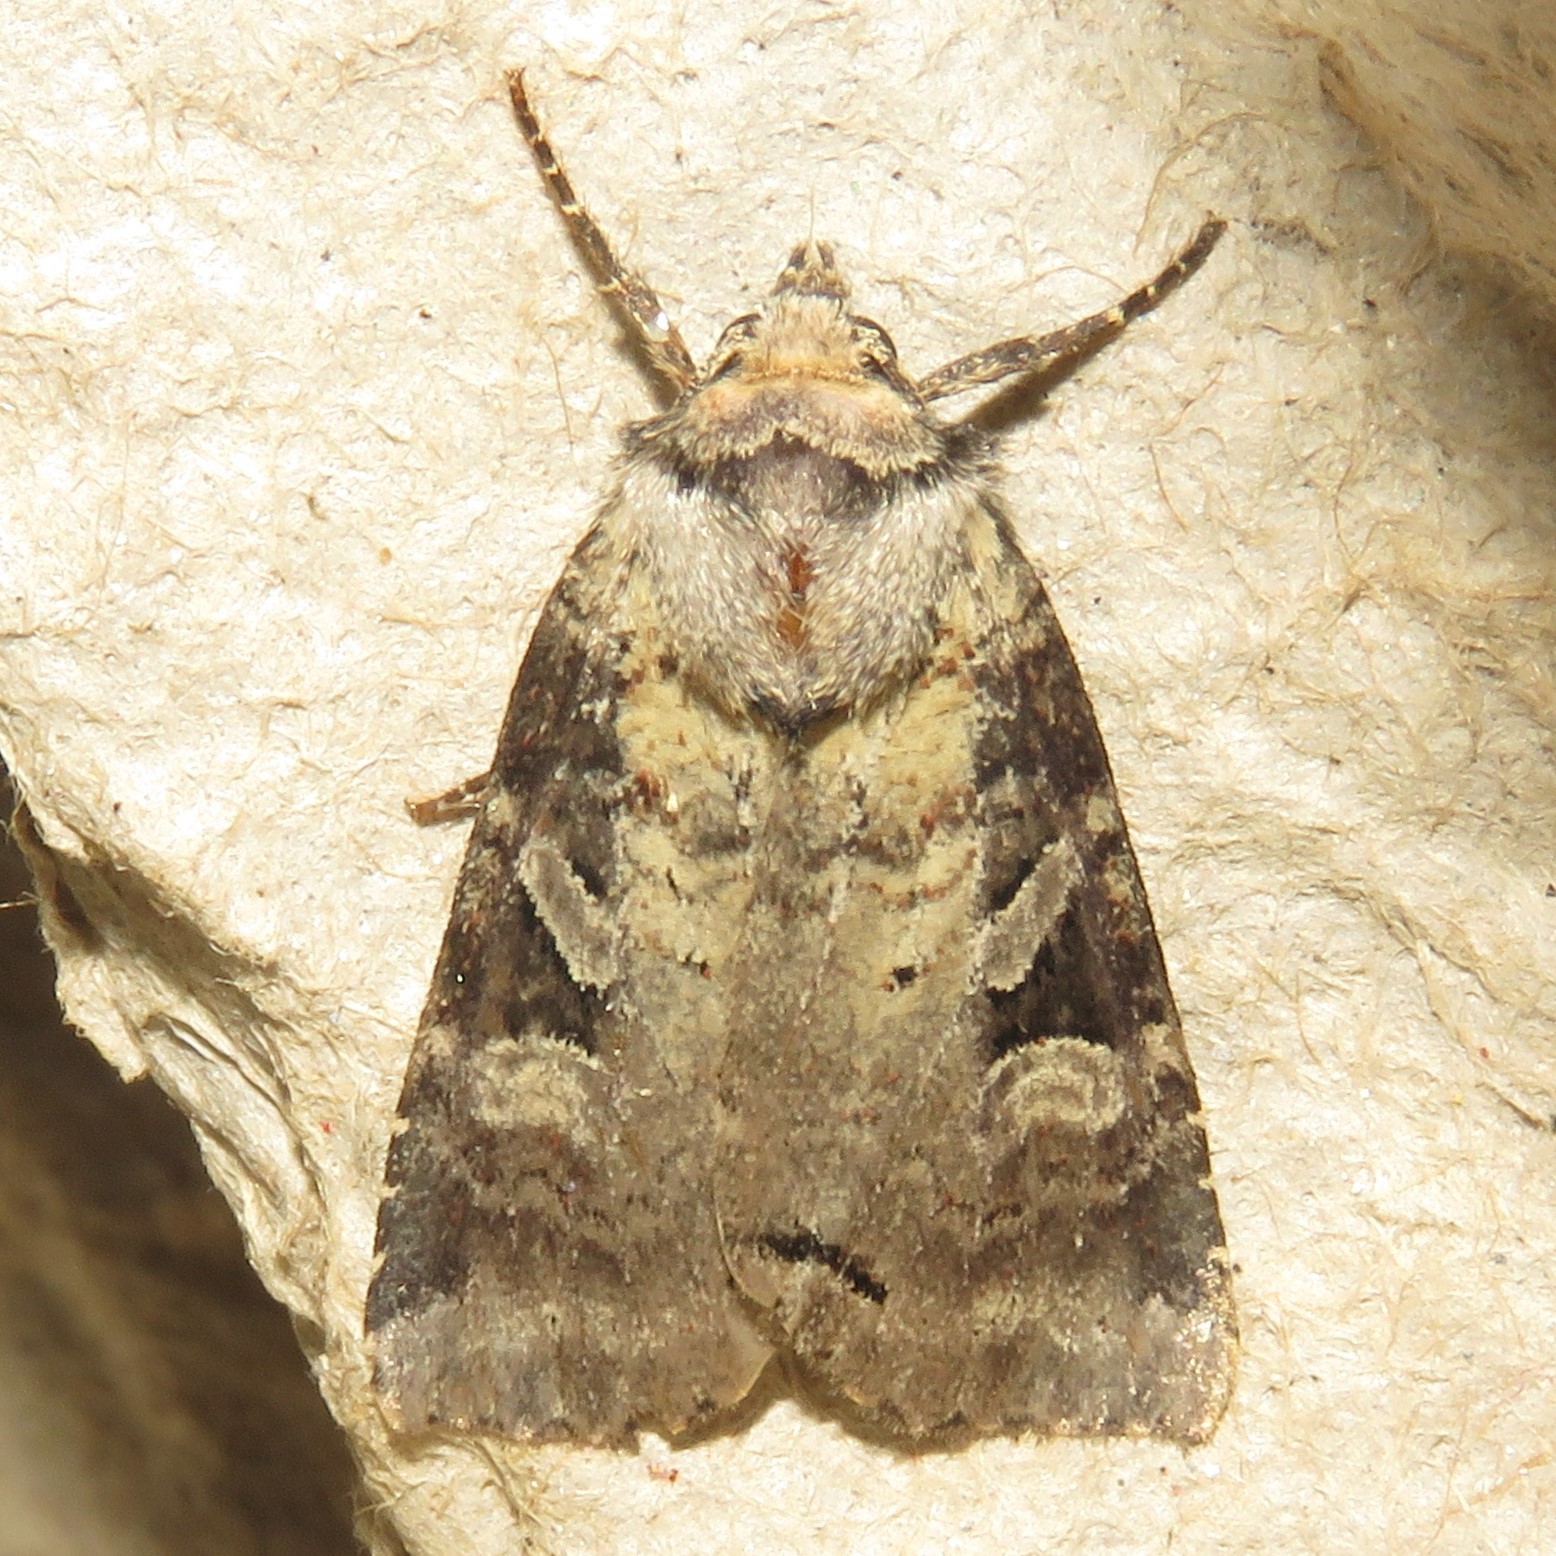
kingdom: Animalia
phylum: Arthropoda
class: Insecta
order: Lepidoptera
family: Noctuidae
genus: Hillia
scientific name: Hillia iris
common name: Iris rover moth
